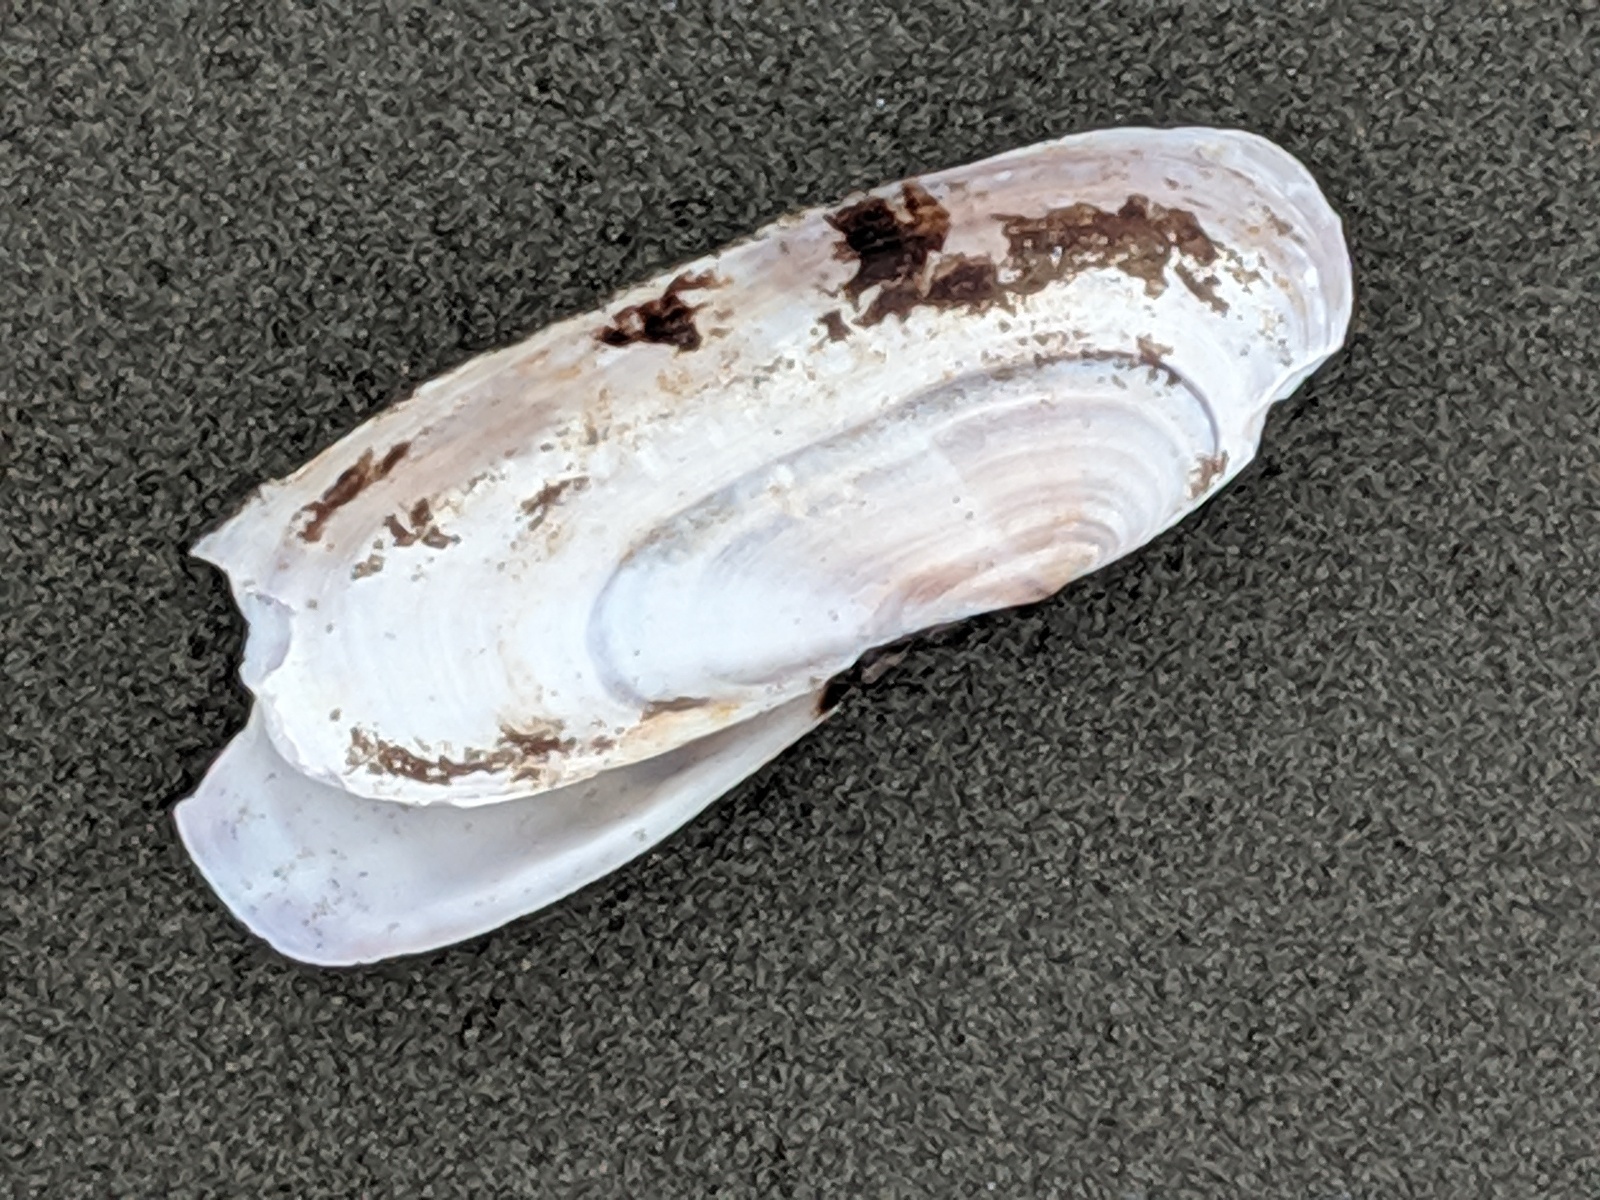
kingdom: Animalia
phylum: Mollusca
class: Bivalvia
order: Adapedonta
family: Pharidae
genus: Siliqua
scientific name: Siliqua patula
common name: Pacific razor clam
